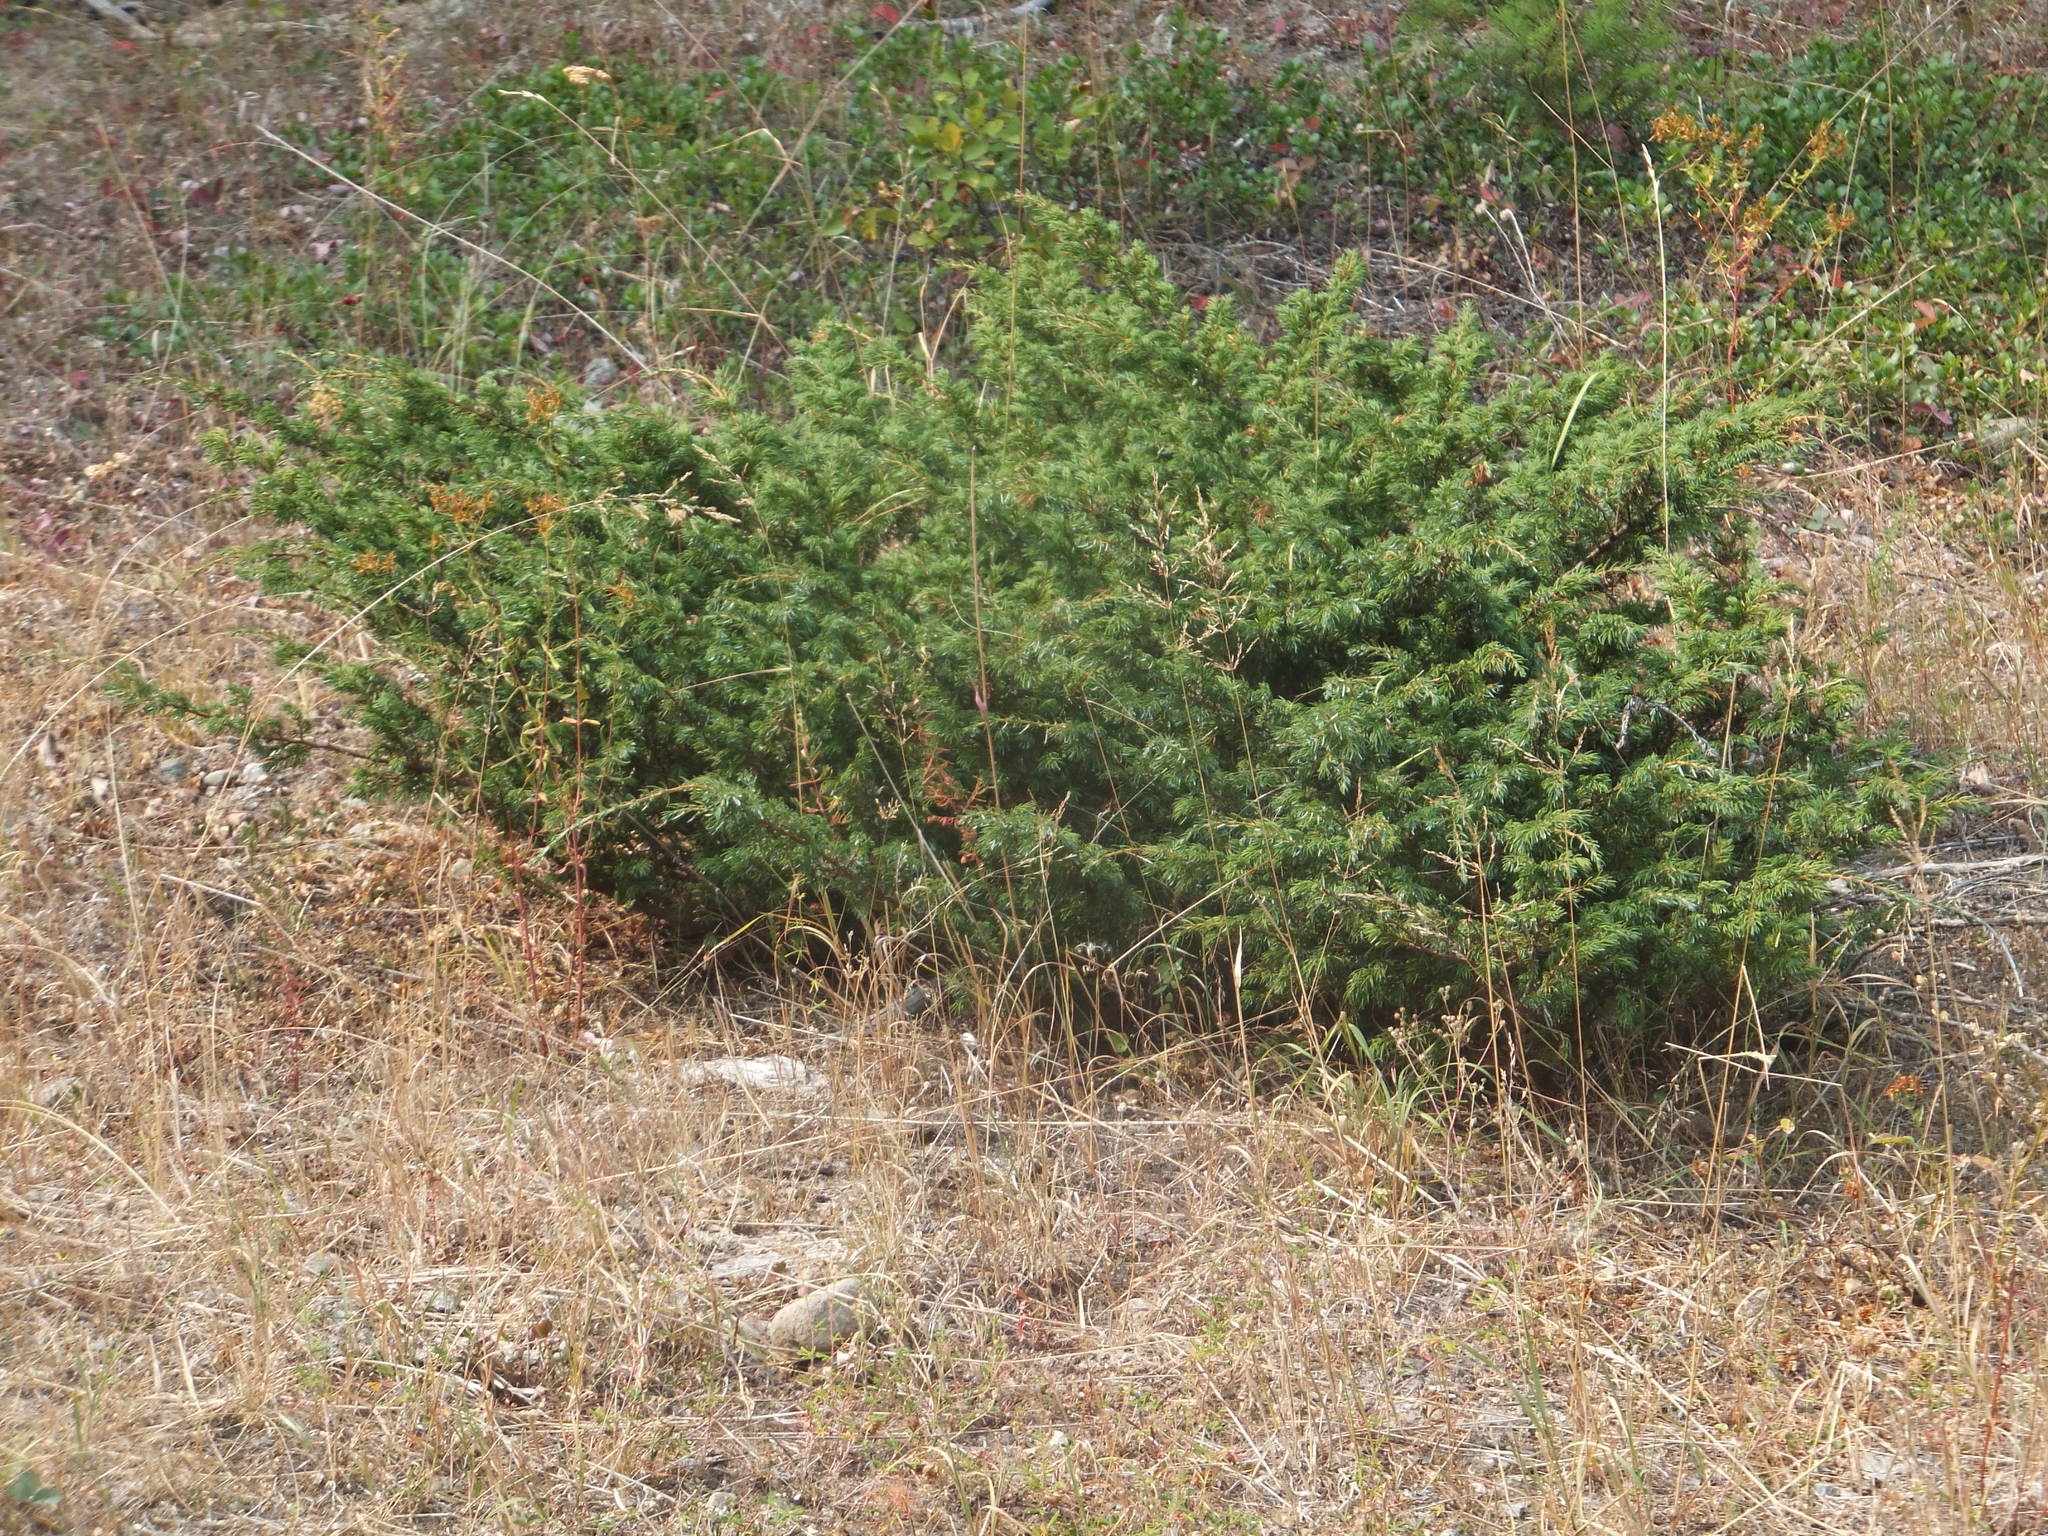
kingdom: Plantae
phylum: Tracheophyta
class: Pinopsida
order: Pinales
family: Cupressaceae
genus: Juniperus
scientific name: Juniperus communis
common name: Common juniper
